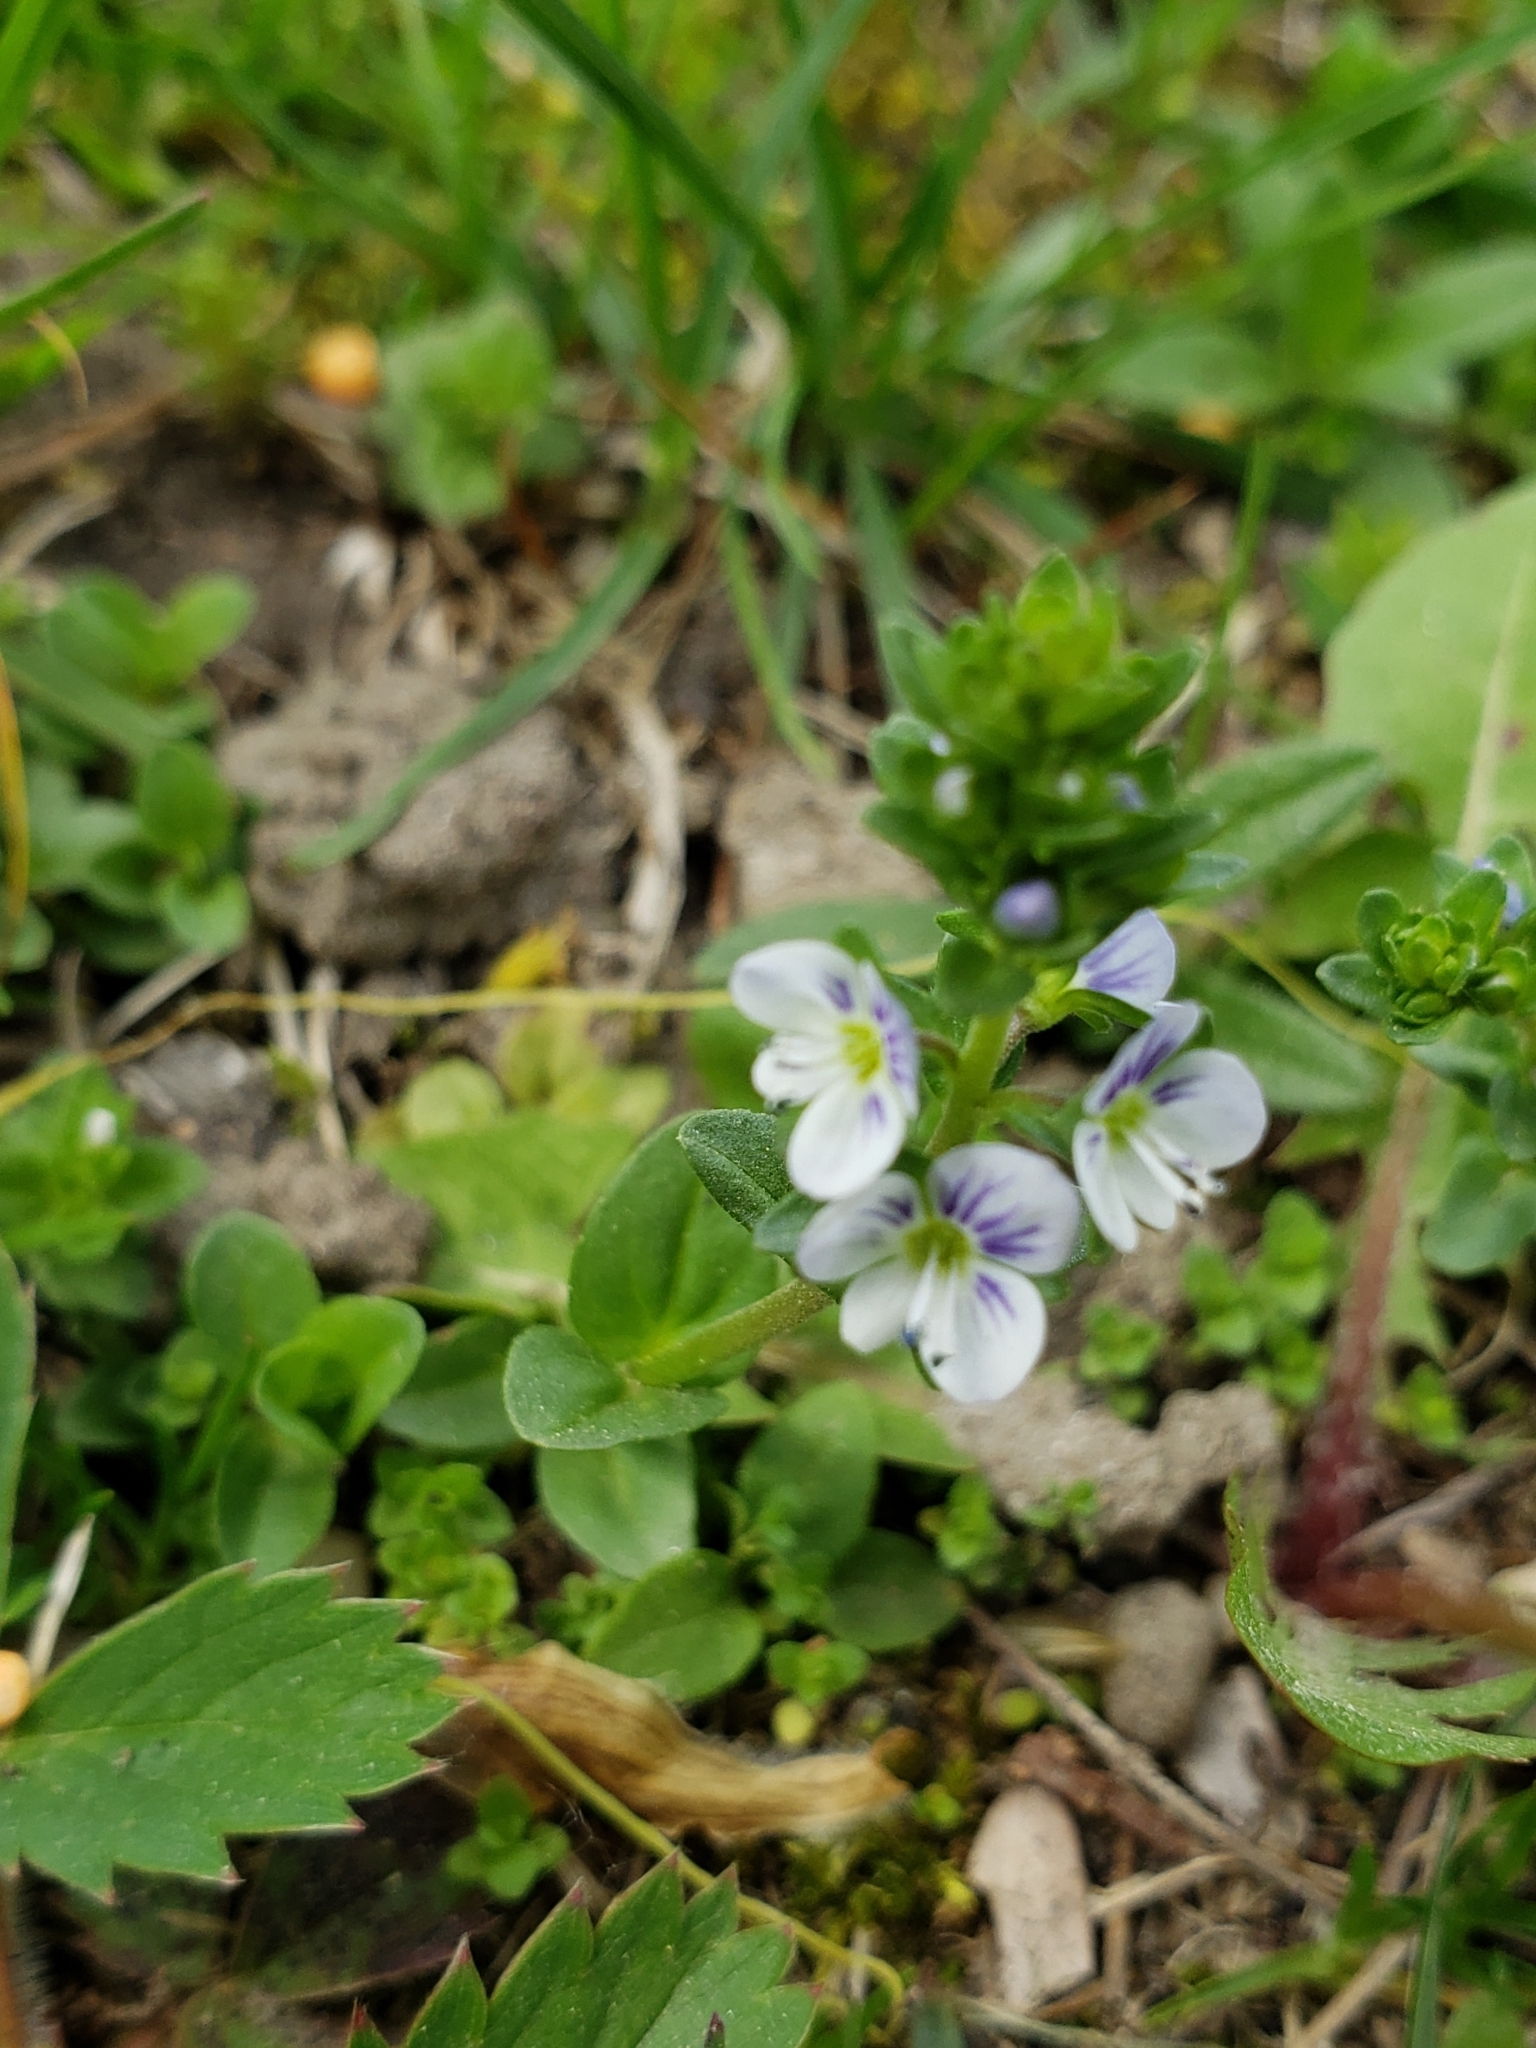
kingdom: Plantae
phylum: Tracheophyta
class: Magnoliopsida
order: Lamiales
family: Plantaginaceae
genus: Veronica
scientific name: Veronica serpyllifolia
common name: Thyme-leaved speedwell
